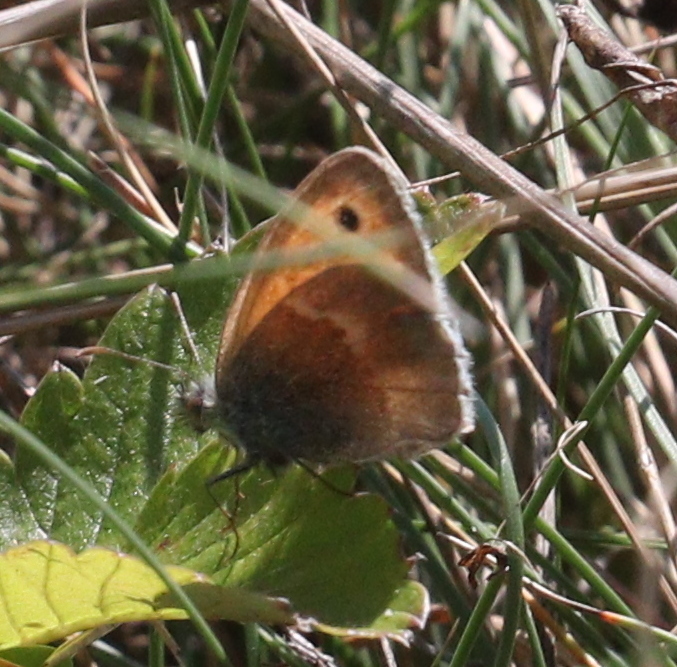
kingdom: Animalia
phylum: Arthropoda
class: Insecta
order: Lepidoptera
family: Nymphalidae
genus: Coenonympha
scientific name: Coenonympha pamphilus
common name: Small heath
